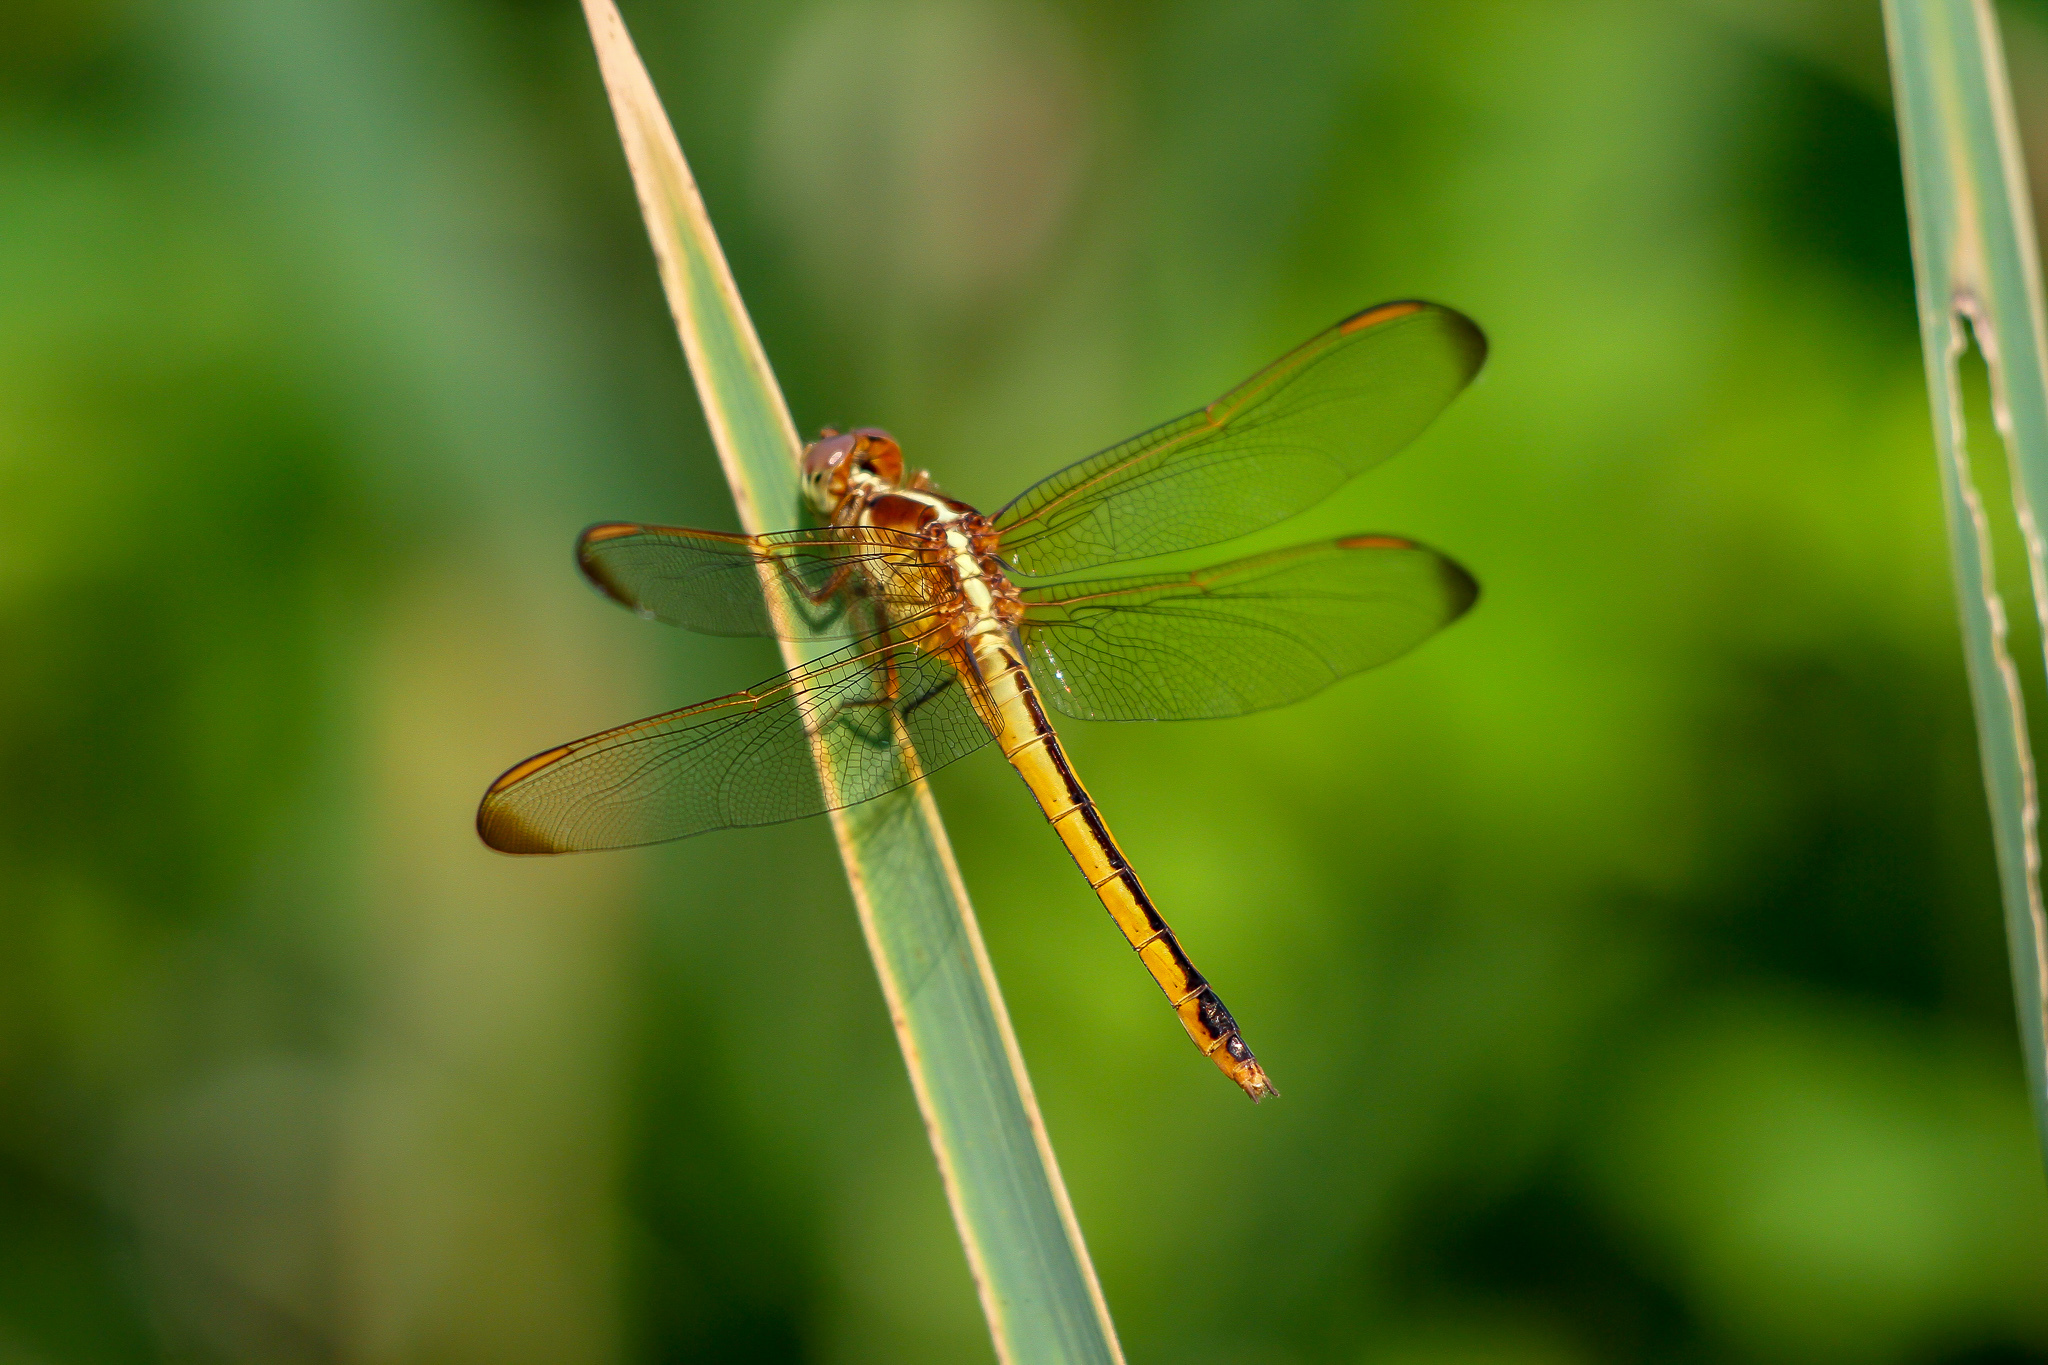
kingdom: Animalia
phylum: Arthropoda
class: Insecta
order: Odonata
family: Libellulidae
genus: Libellula
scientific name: Libellula needhami
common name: Needham's skimmer
